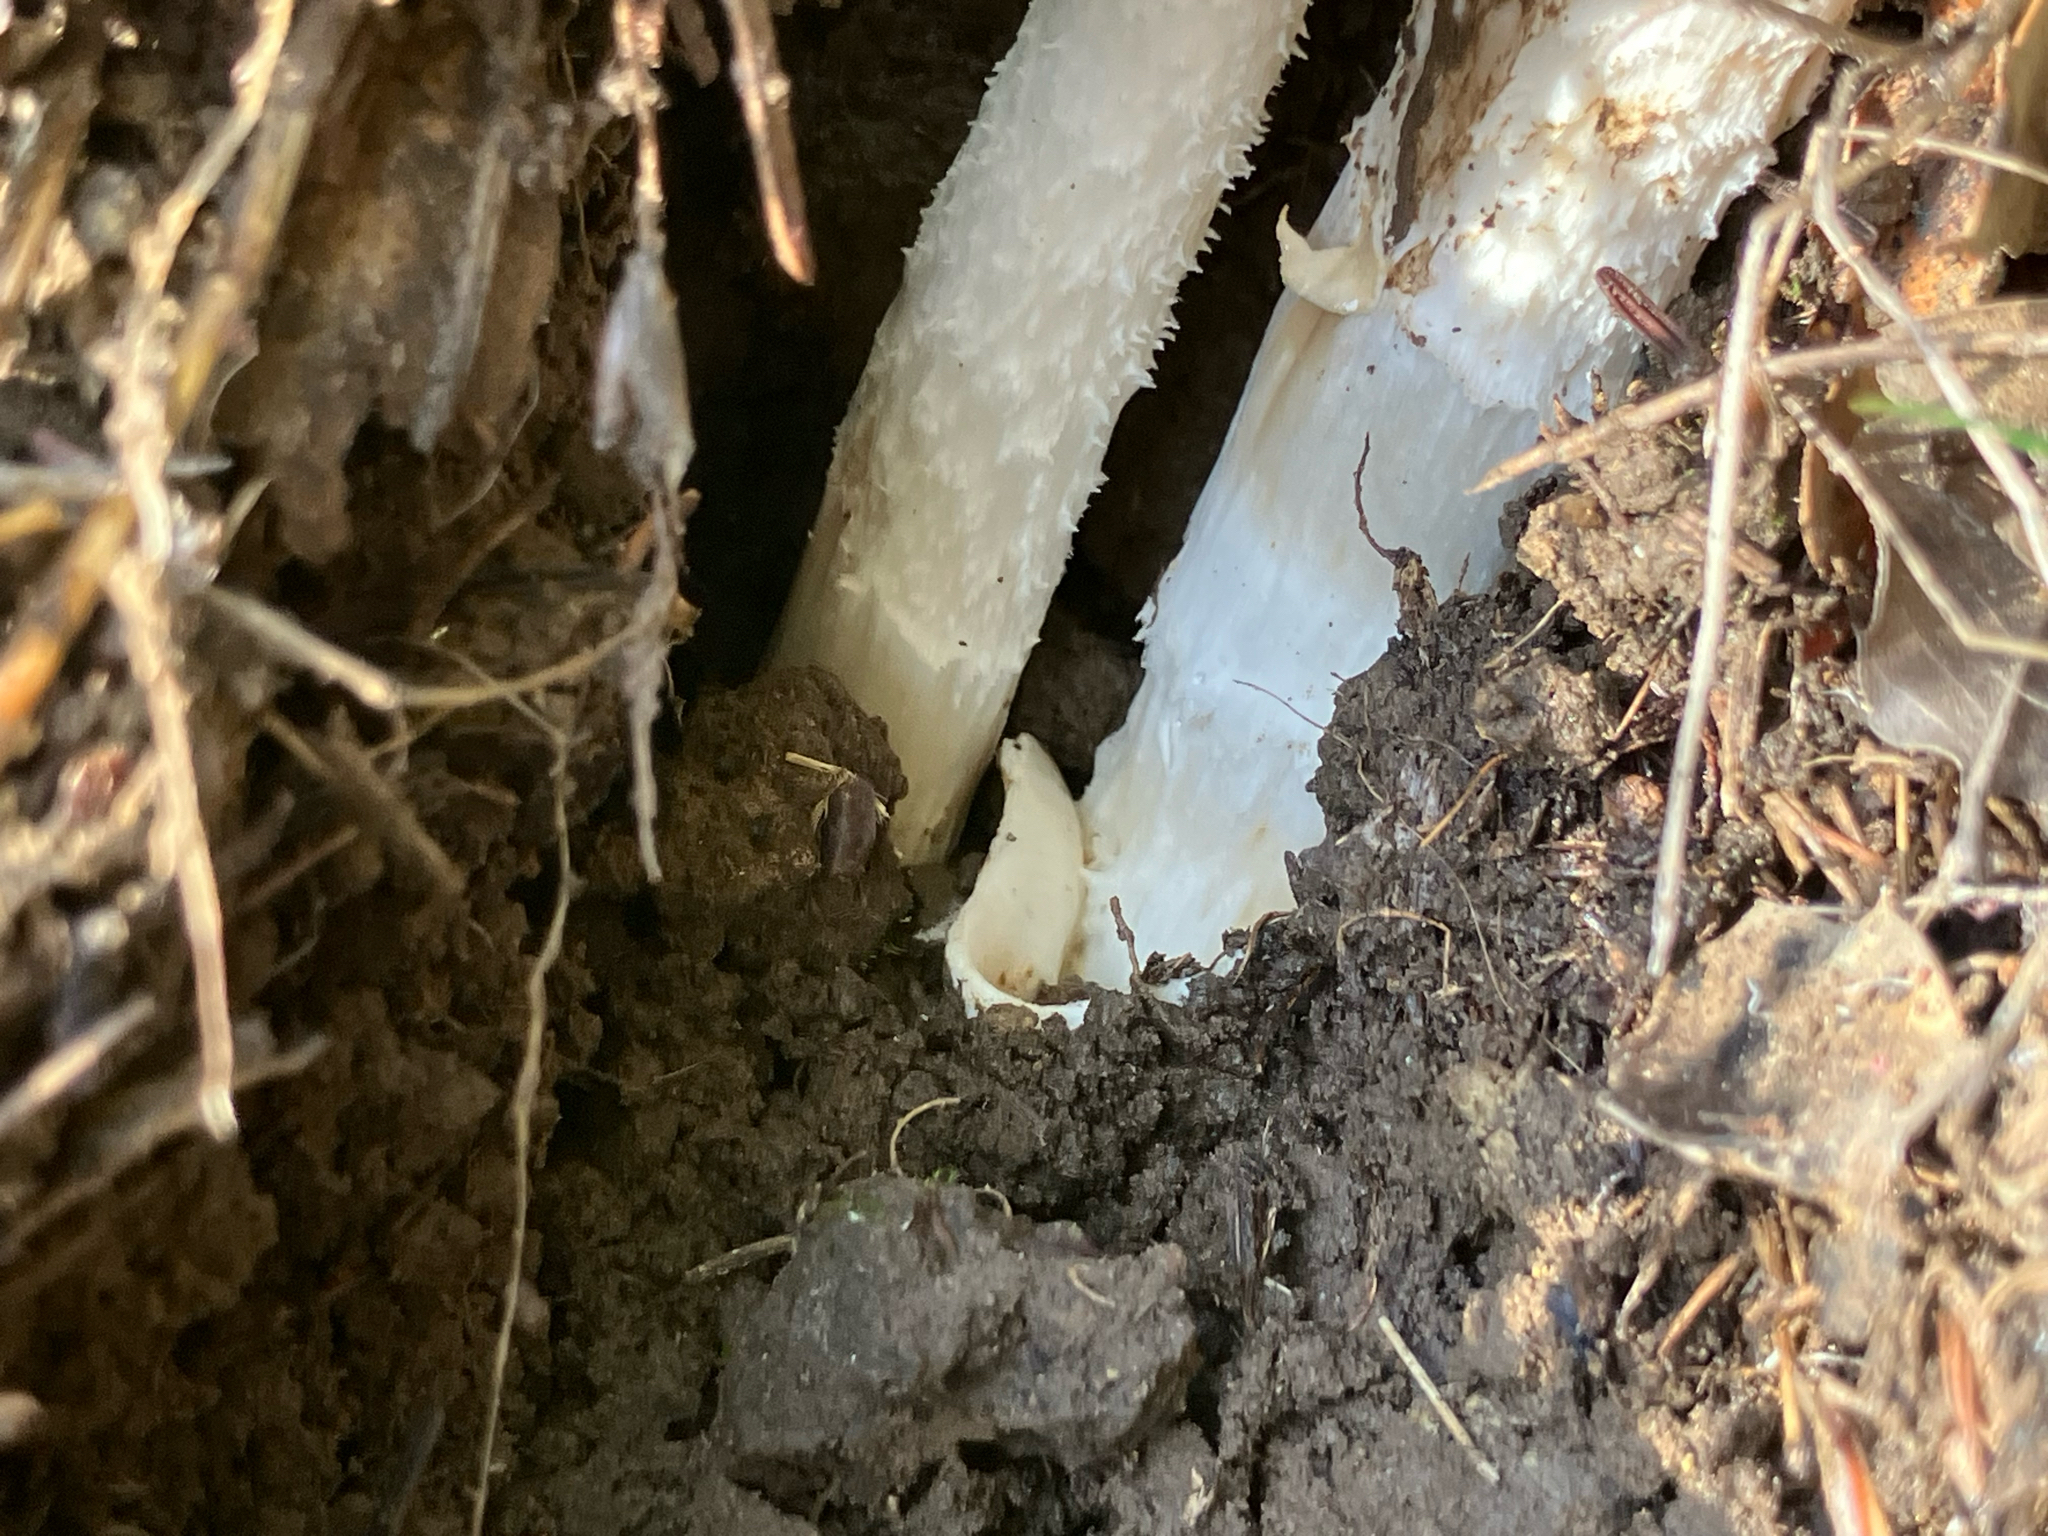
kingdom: Fungi
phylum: Basidiomycota
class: Agaricomycetes
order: Agaricales
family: Amanitaceae
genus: Amanita
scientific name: Amanita velosa
